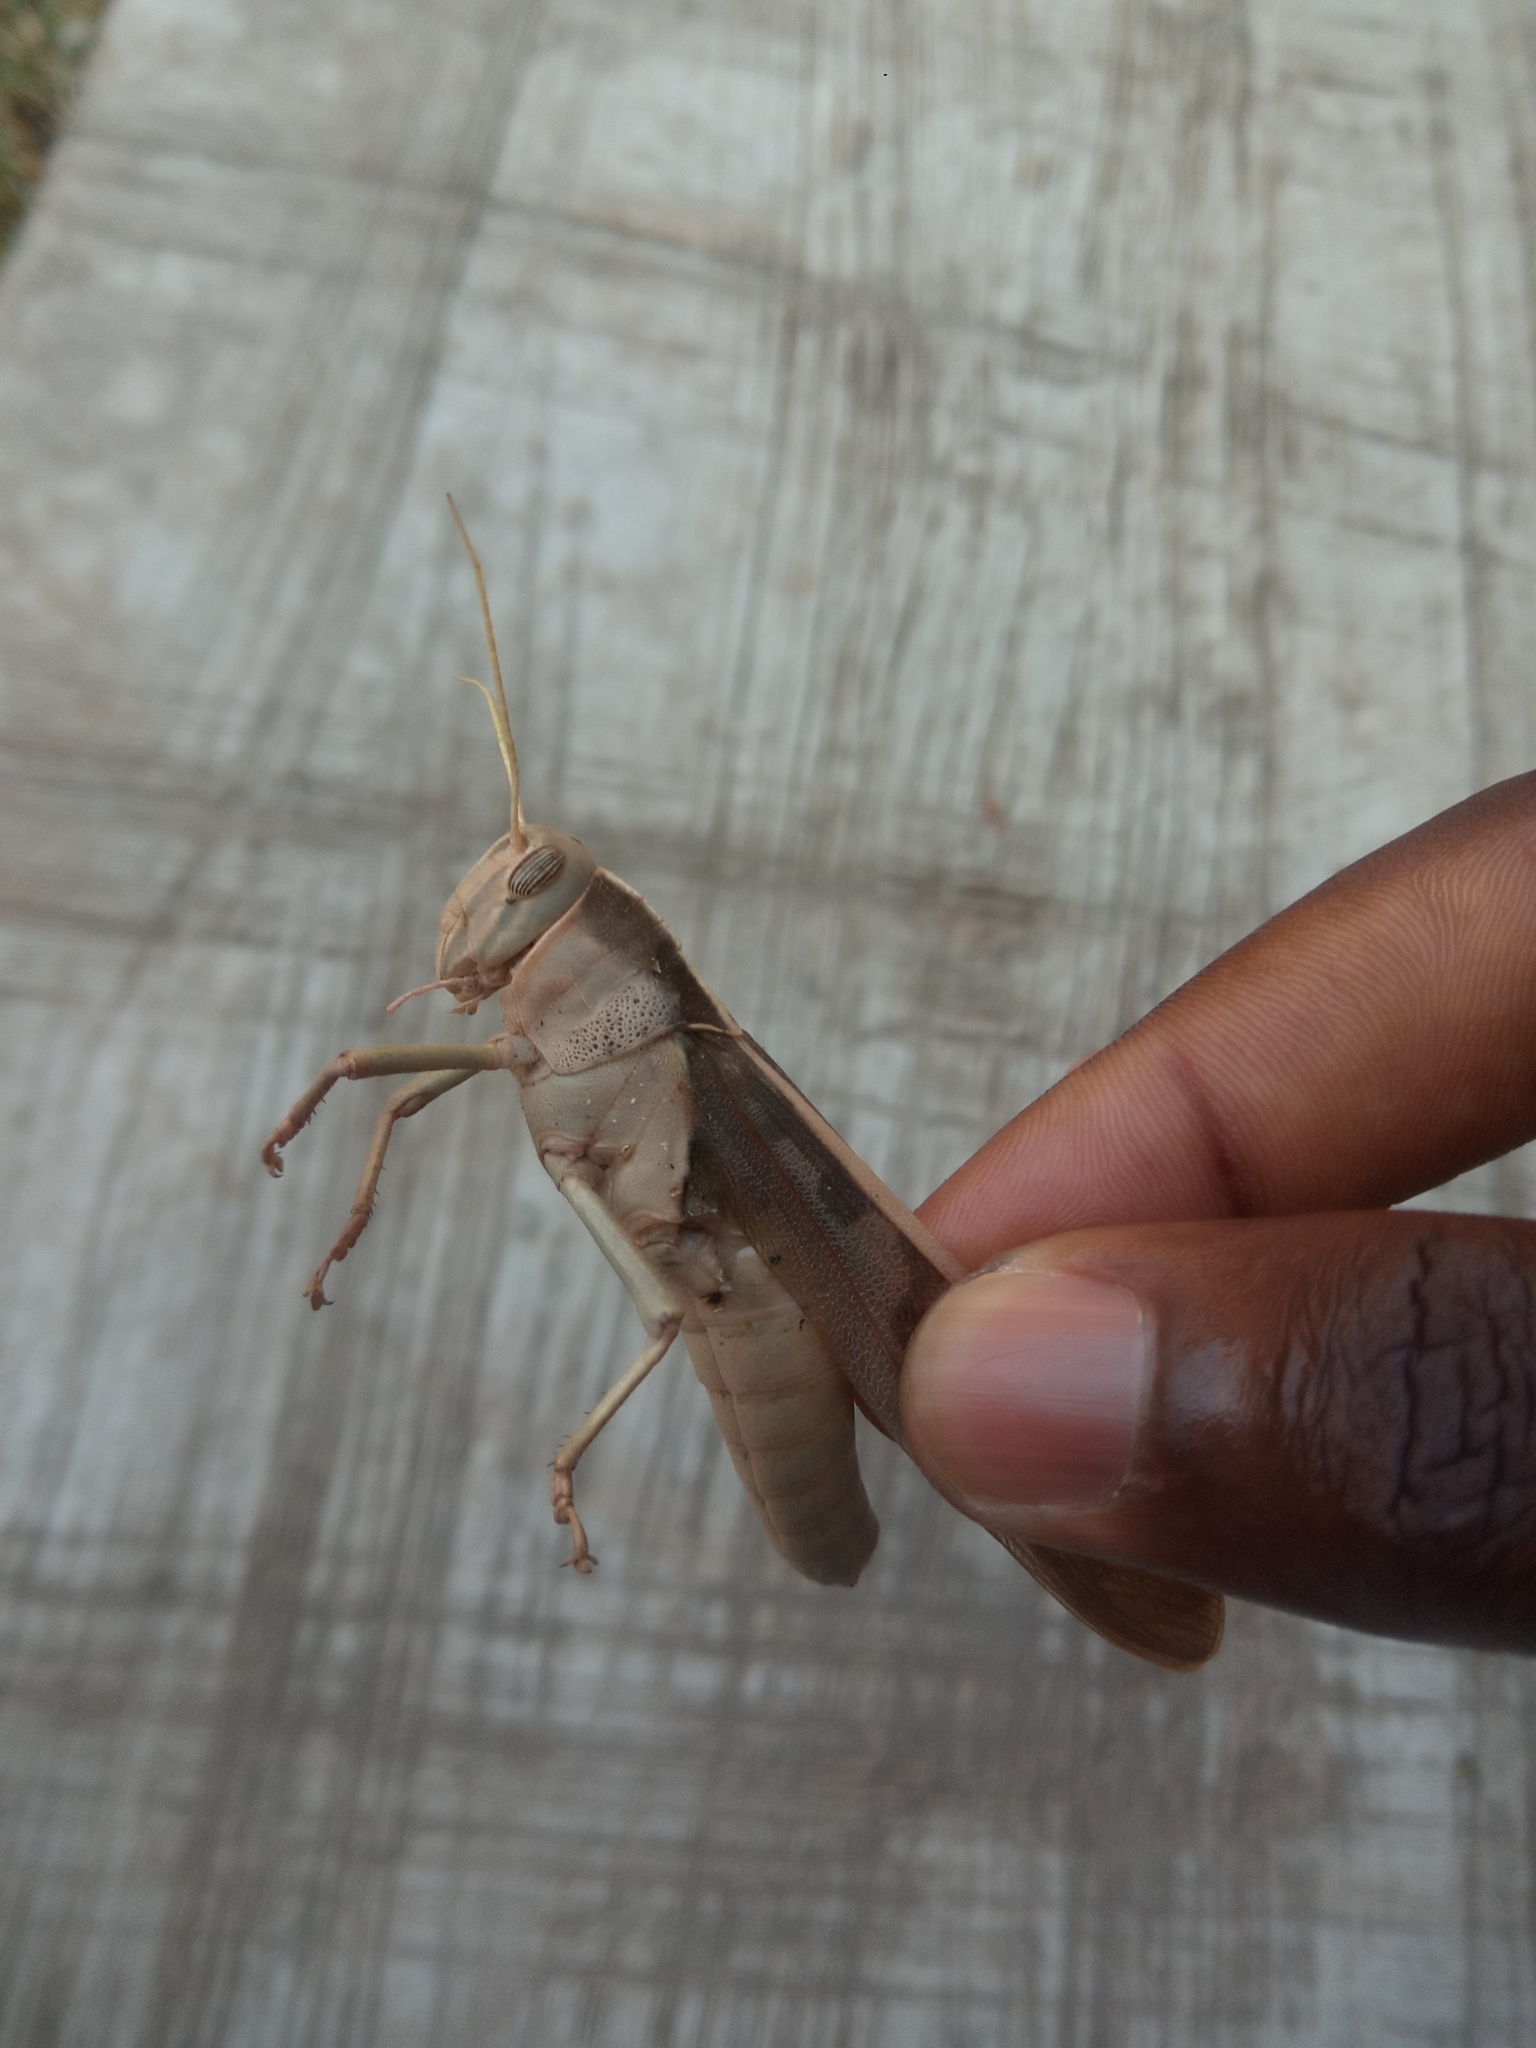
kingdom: Animalia
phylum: Arthropoda
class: Insecta
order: Orthoptera
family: Acrididae
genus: Acanthacris
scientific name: Acanthacris ruficornis
